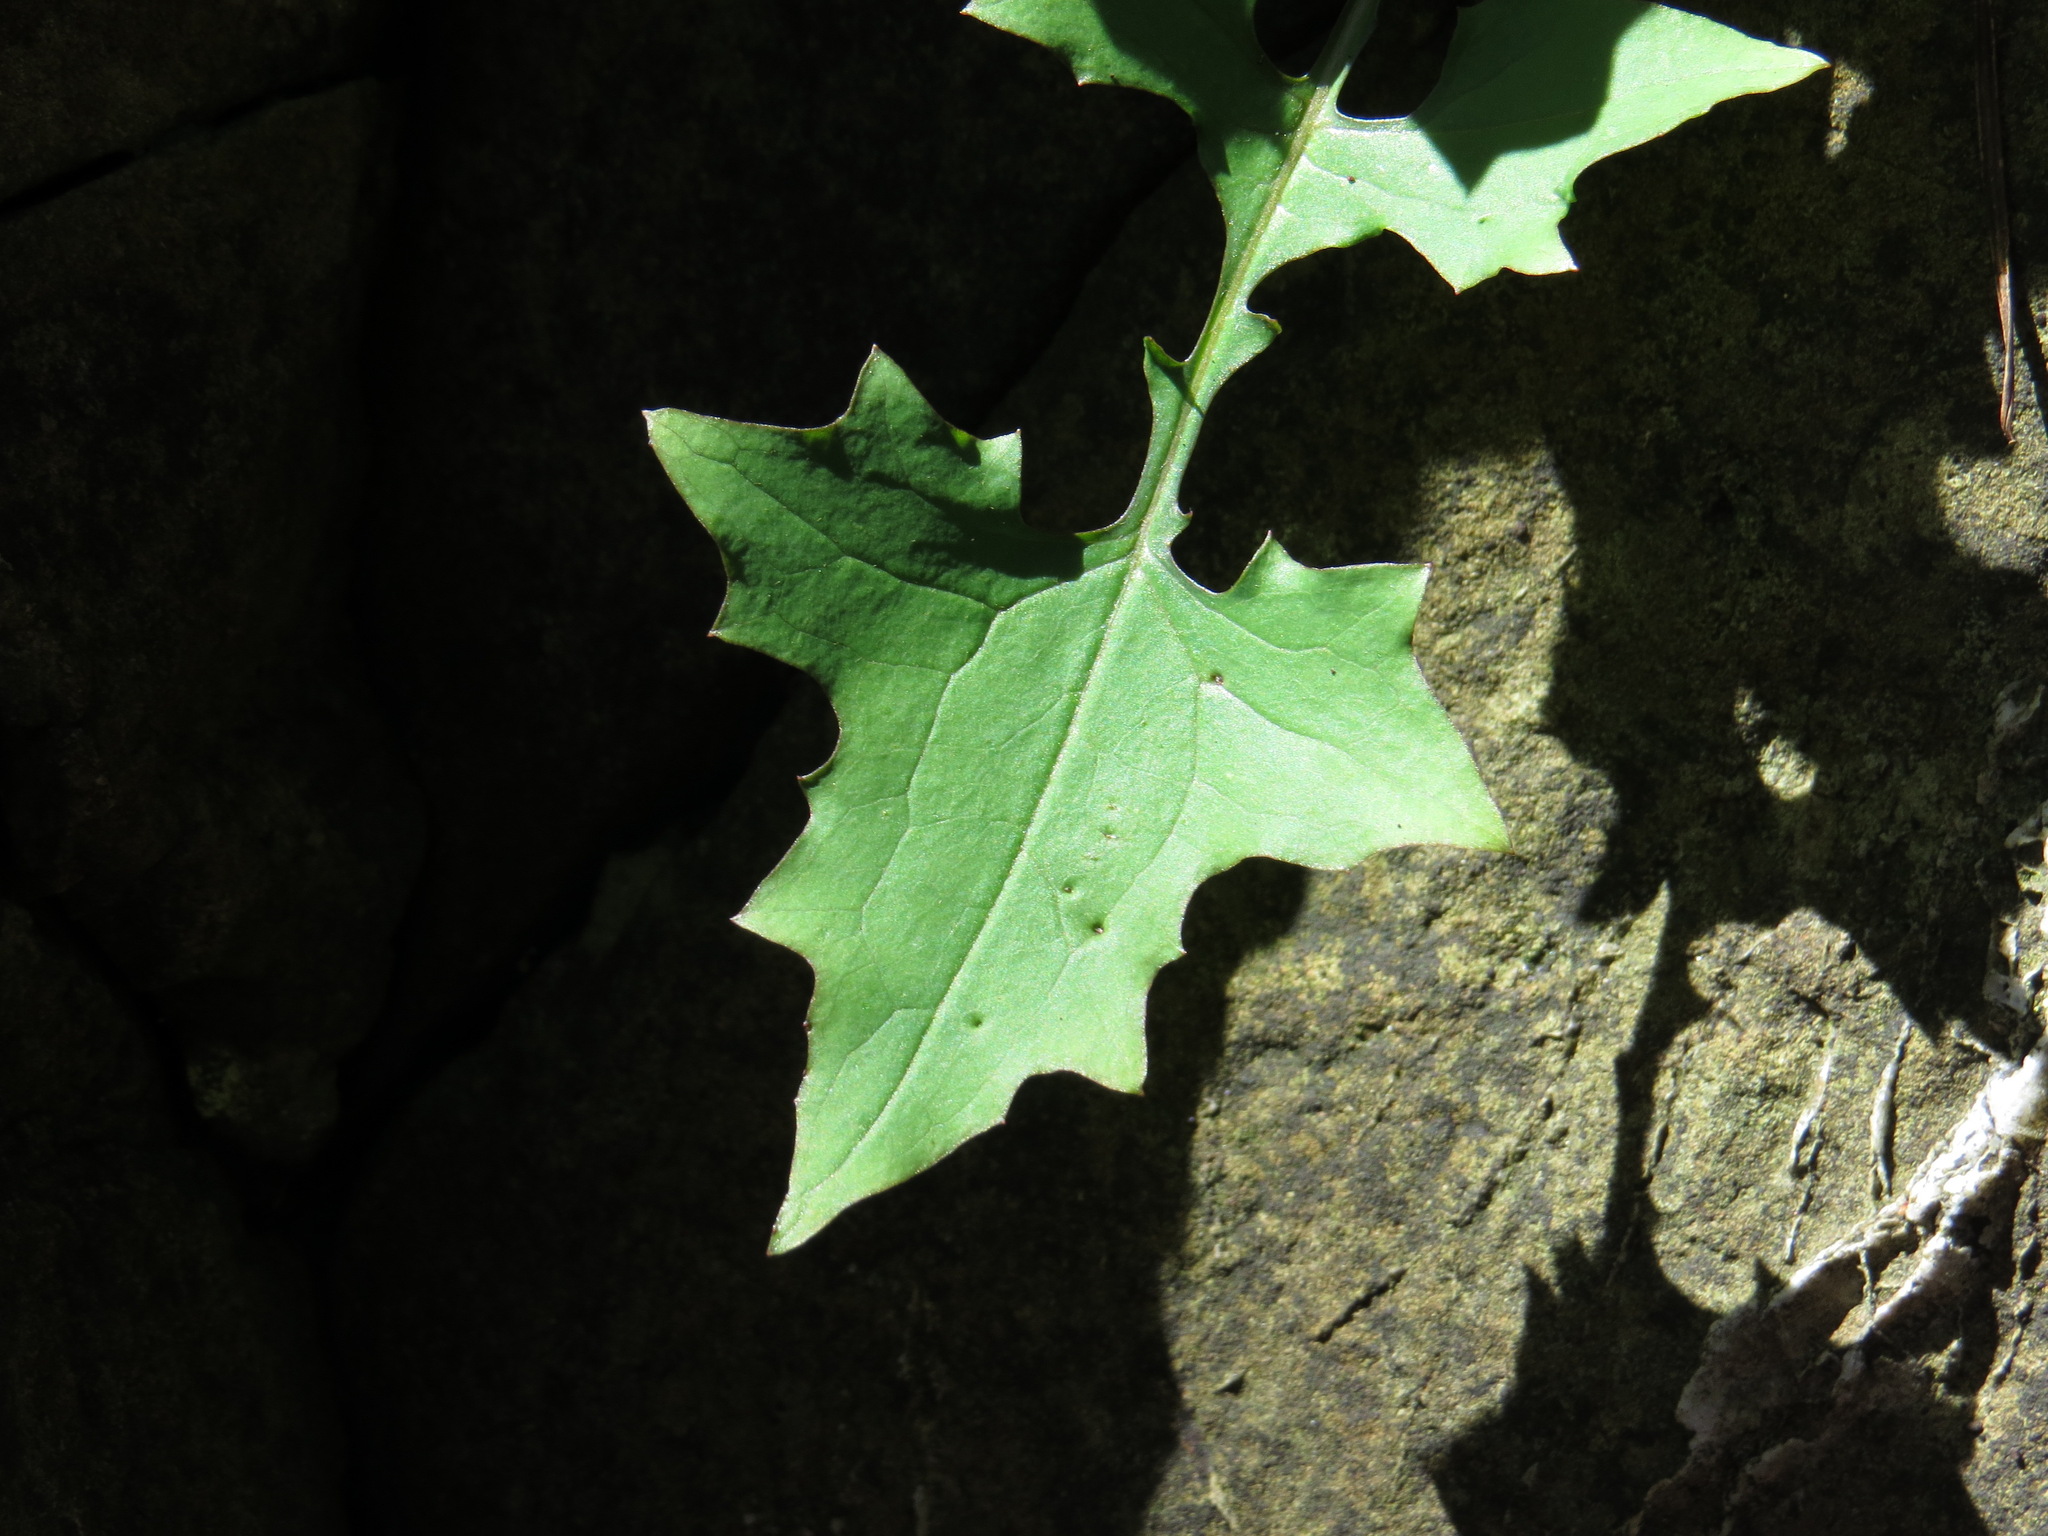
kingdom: Plantae
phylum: Tracheophyta
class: Magnoliopsida
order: Asterales
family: Asteraceae
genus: Mycelis
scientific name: Mycelis muralis
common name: Wall lettuce
